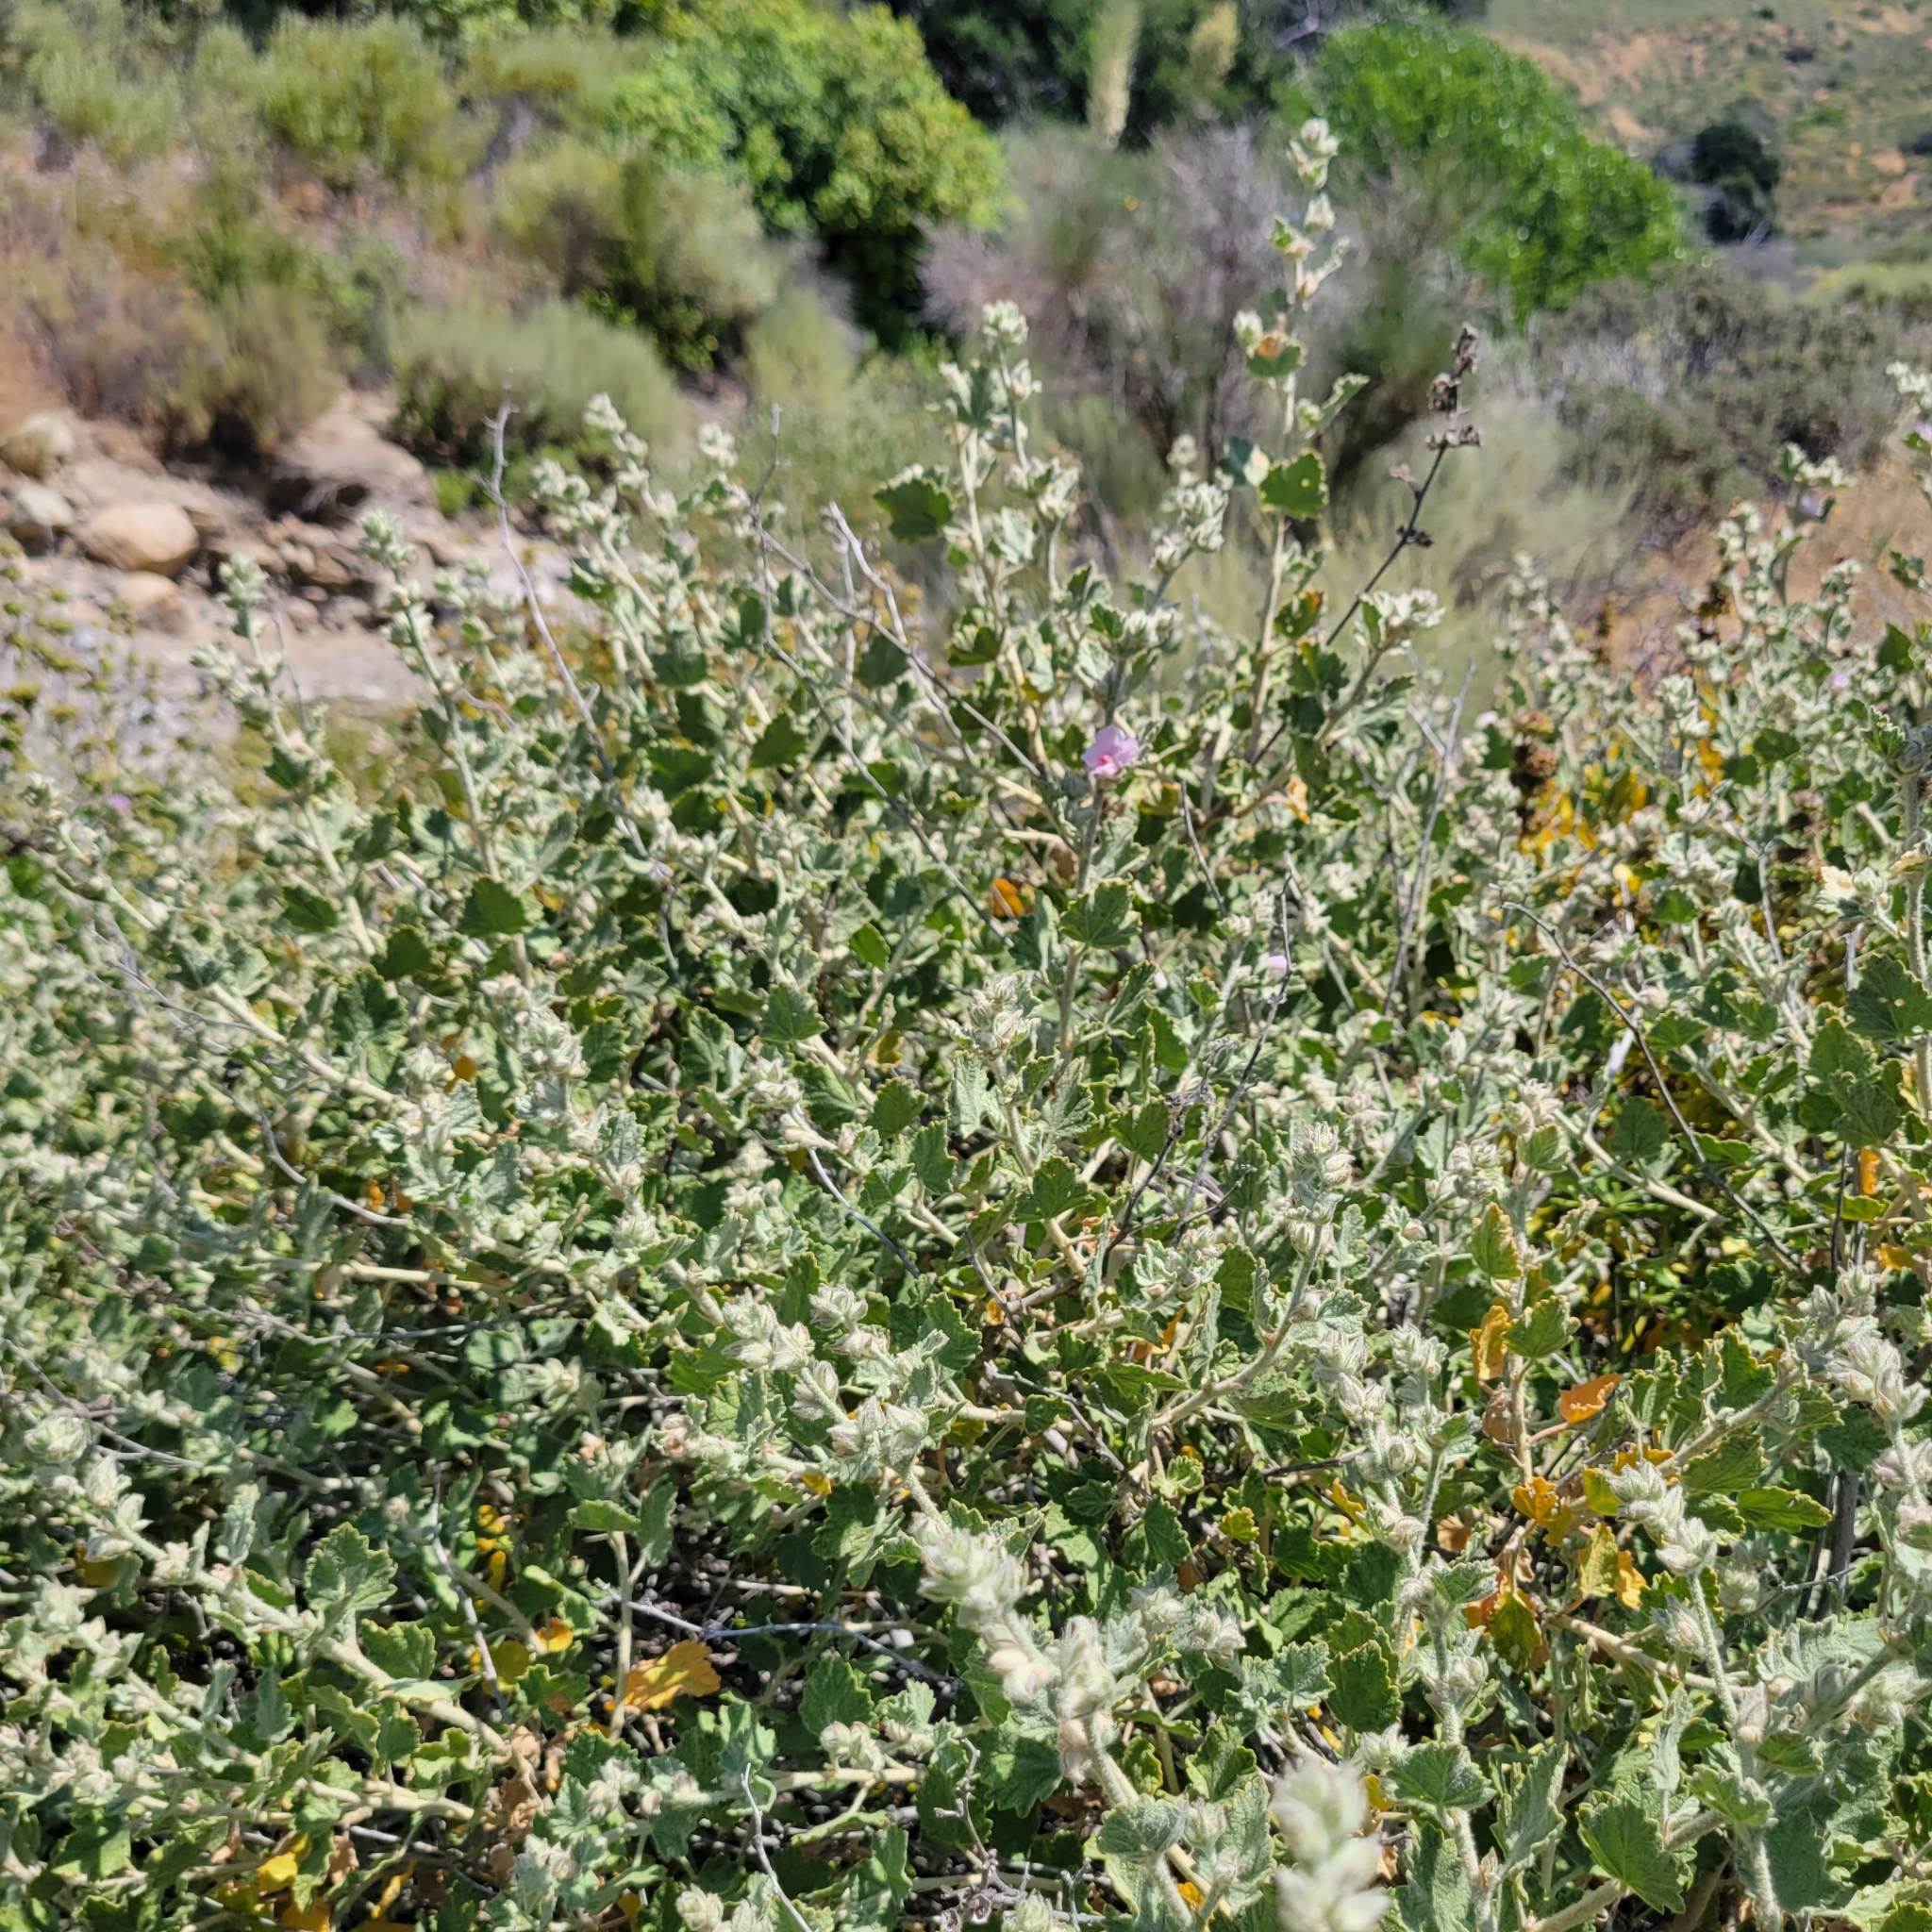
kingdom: Plantae
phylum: Tracheophyta
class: Magnoliopsida
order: Malvales
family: Malvaceae
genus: Malacothamnus
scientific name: Malacothamnus marrubioides
